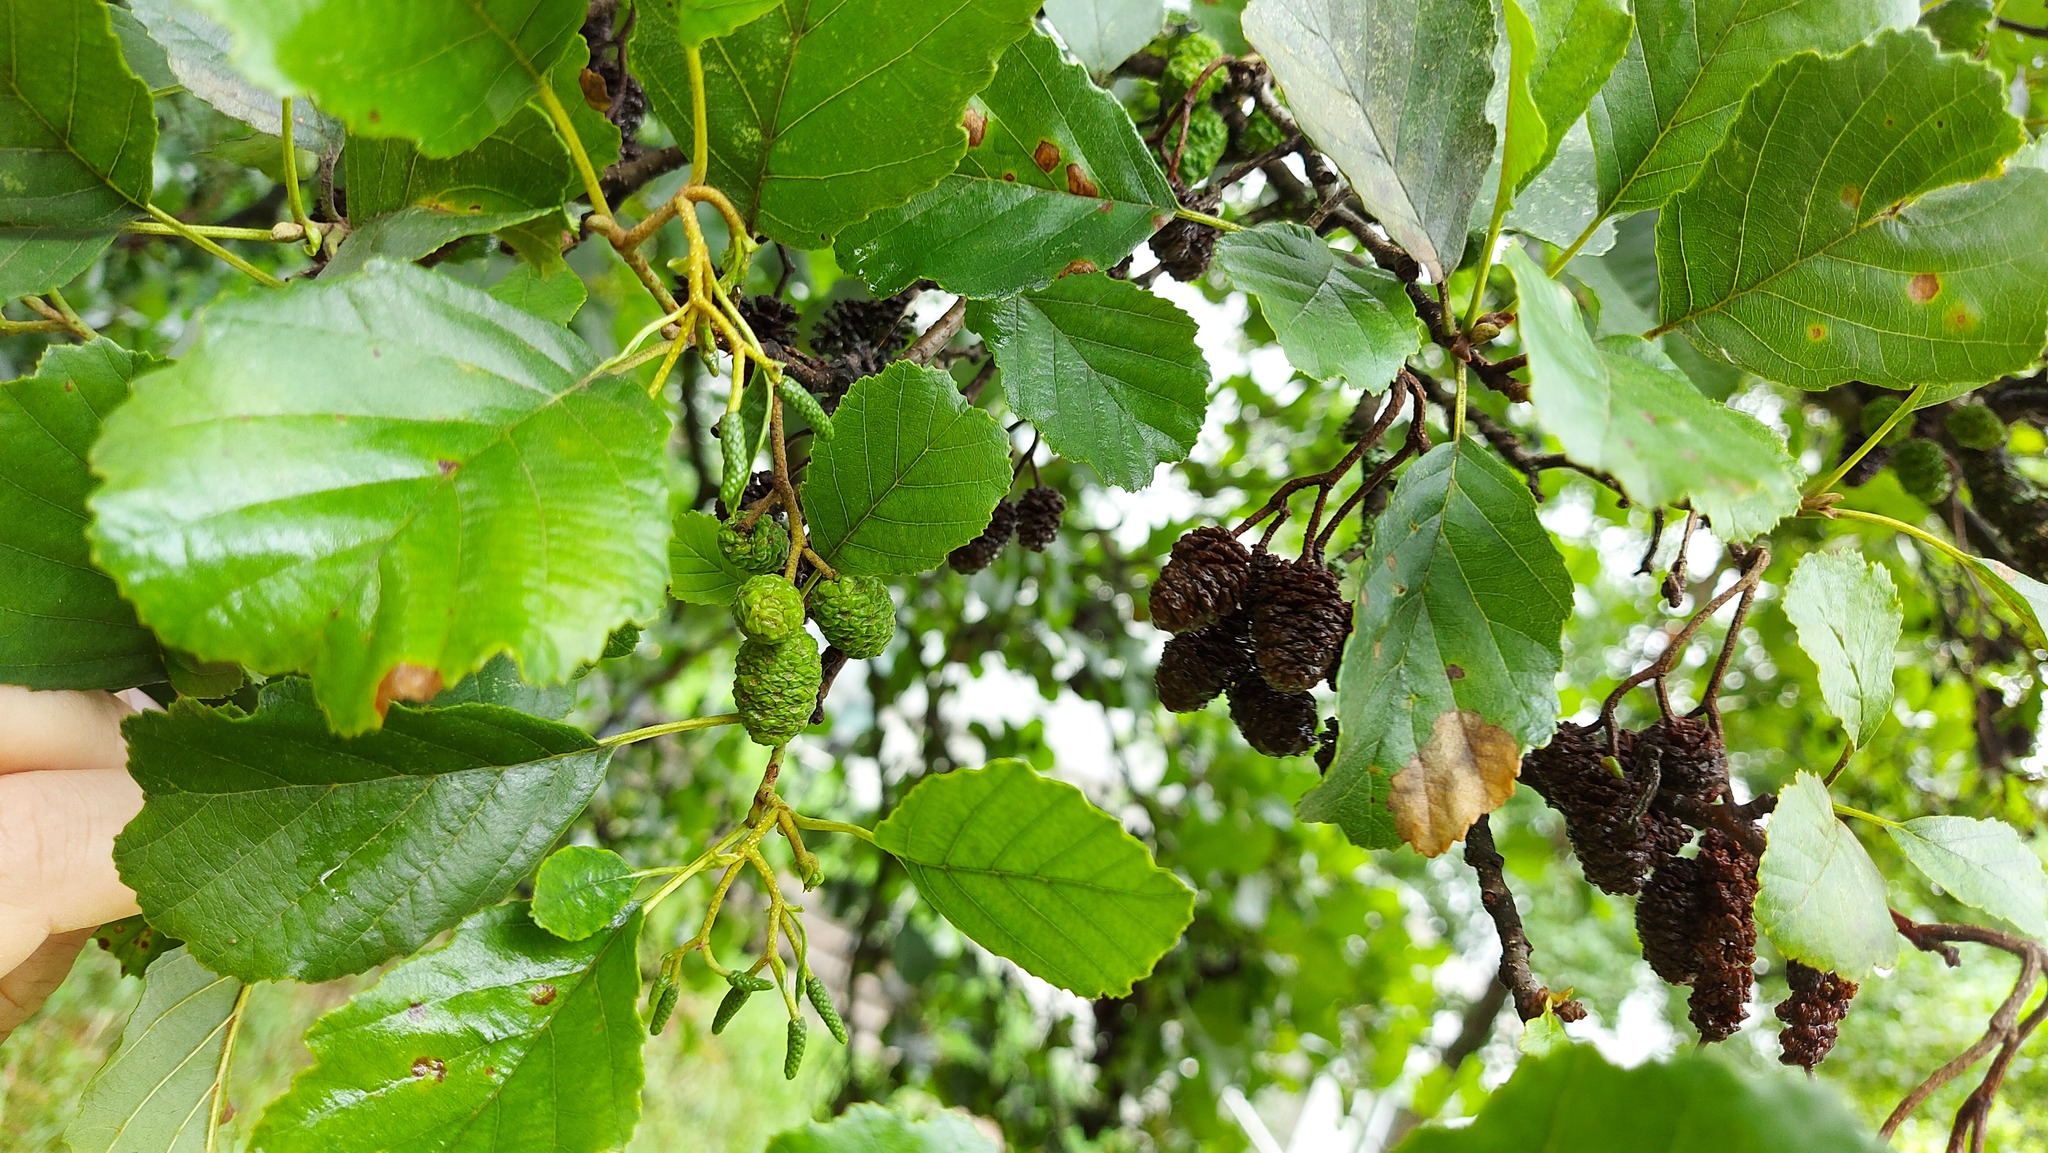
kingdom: Plantae
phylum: Tracheophyta
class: Magnoliopsida
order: Fagales
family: Betulaceae
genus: Alnus
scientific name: Alnus glutinosa
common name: Black alder
